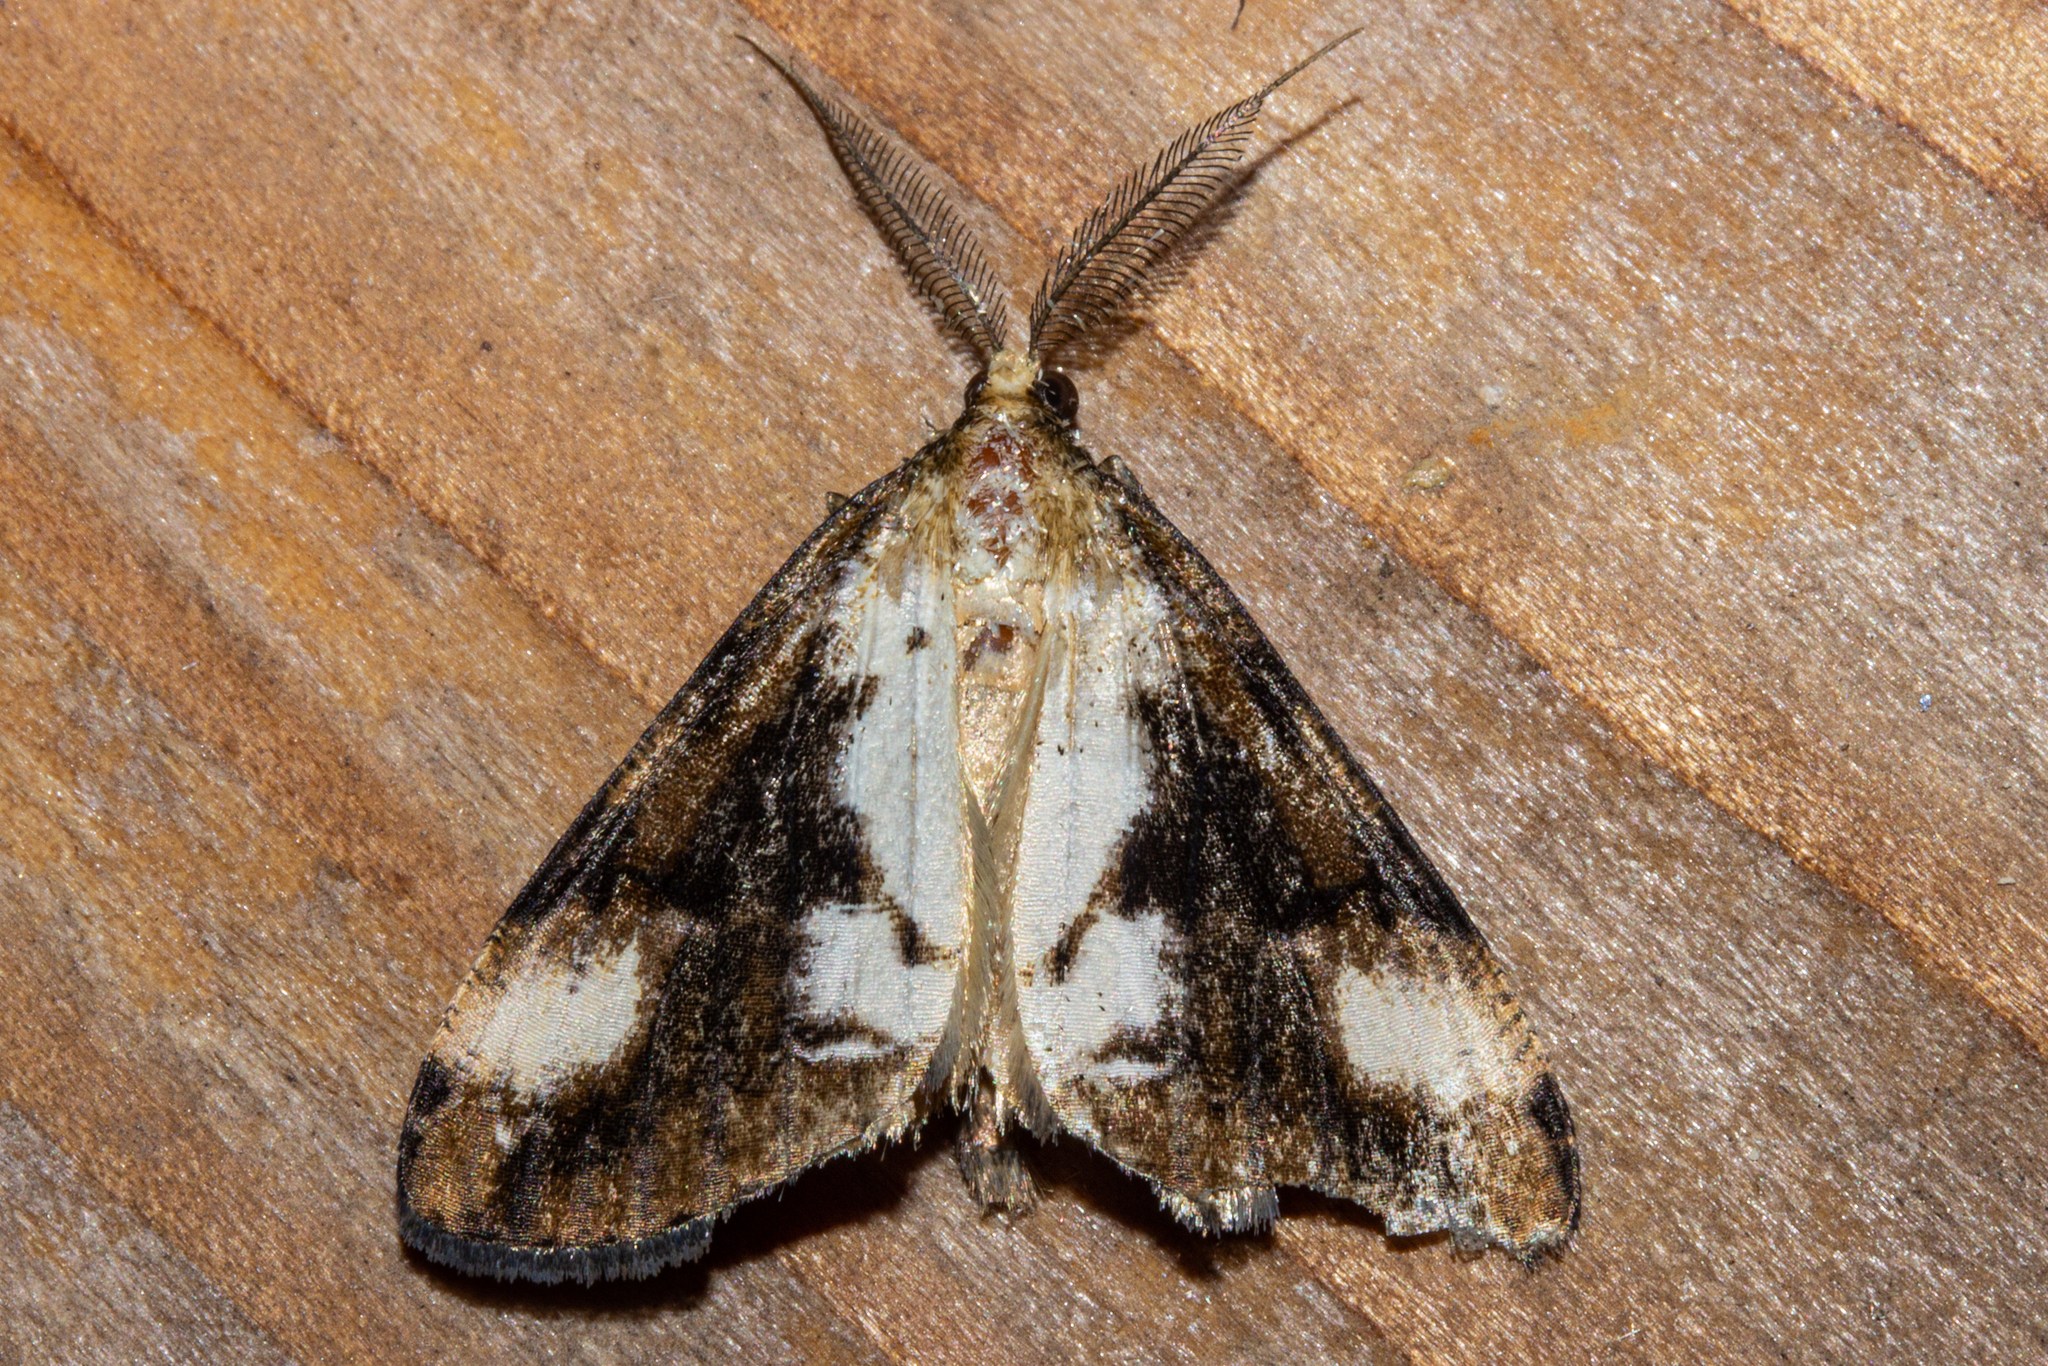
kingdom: Animalia
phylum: Arthropoda
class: Insecta
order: Lepidoptera
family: Geometridae
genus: Pseudocoremia
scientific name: Pseudocoremia leucelaea
